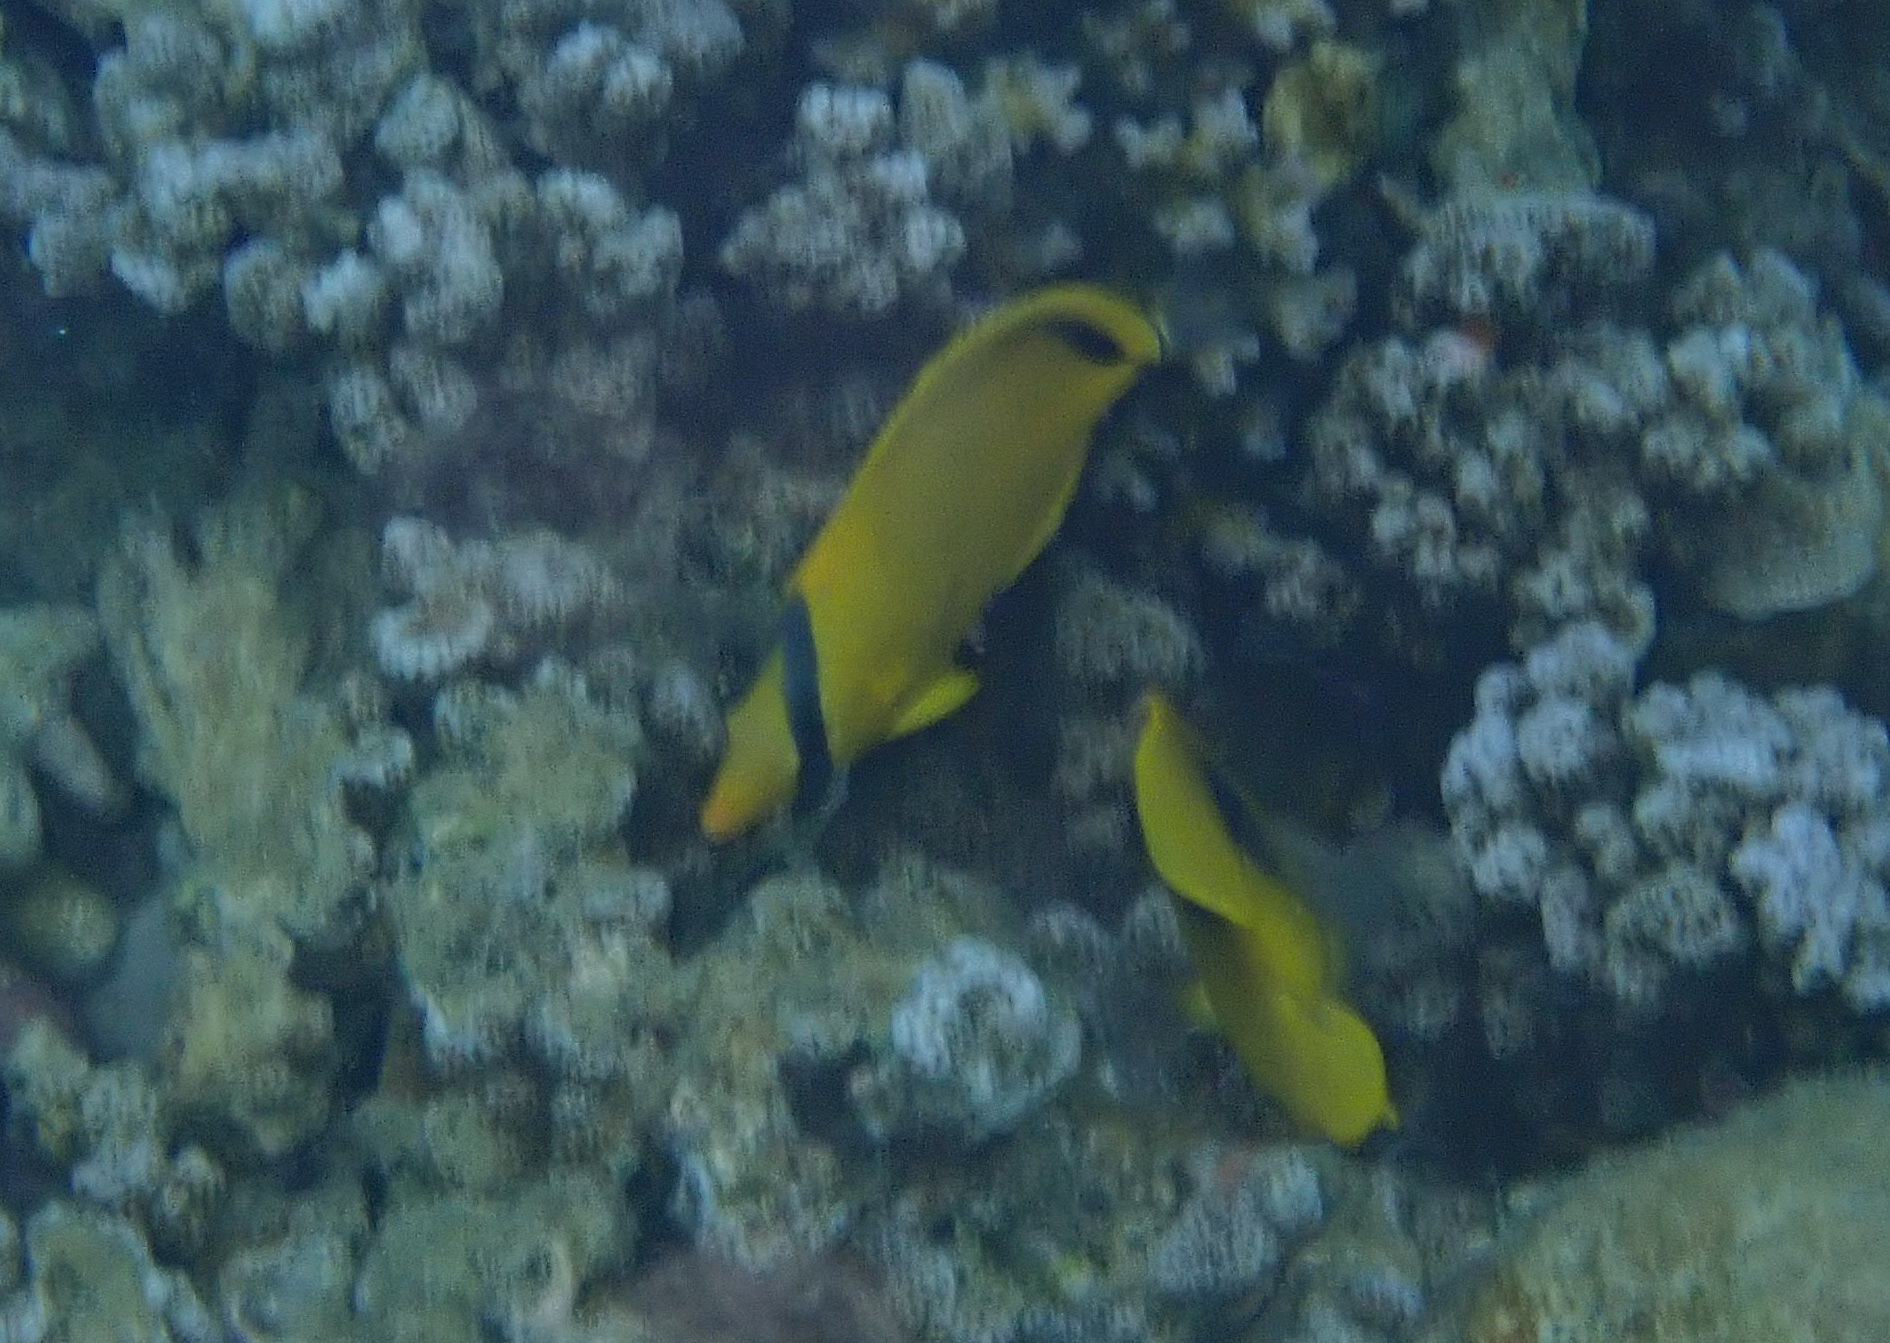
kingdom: Animalia
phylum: Chordata
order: Perciformes
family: Chaetodontidae
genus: Chaetodon
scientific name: Chaetodon semeion
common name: Dotted butterflyfish
